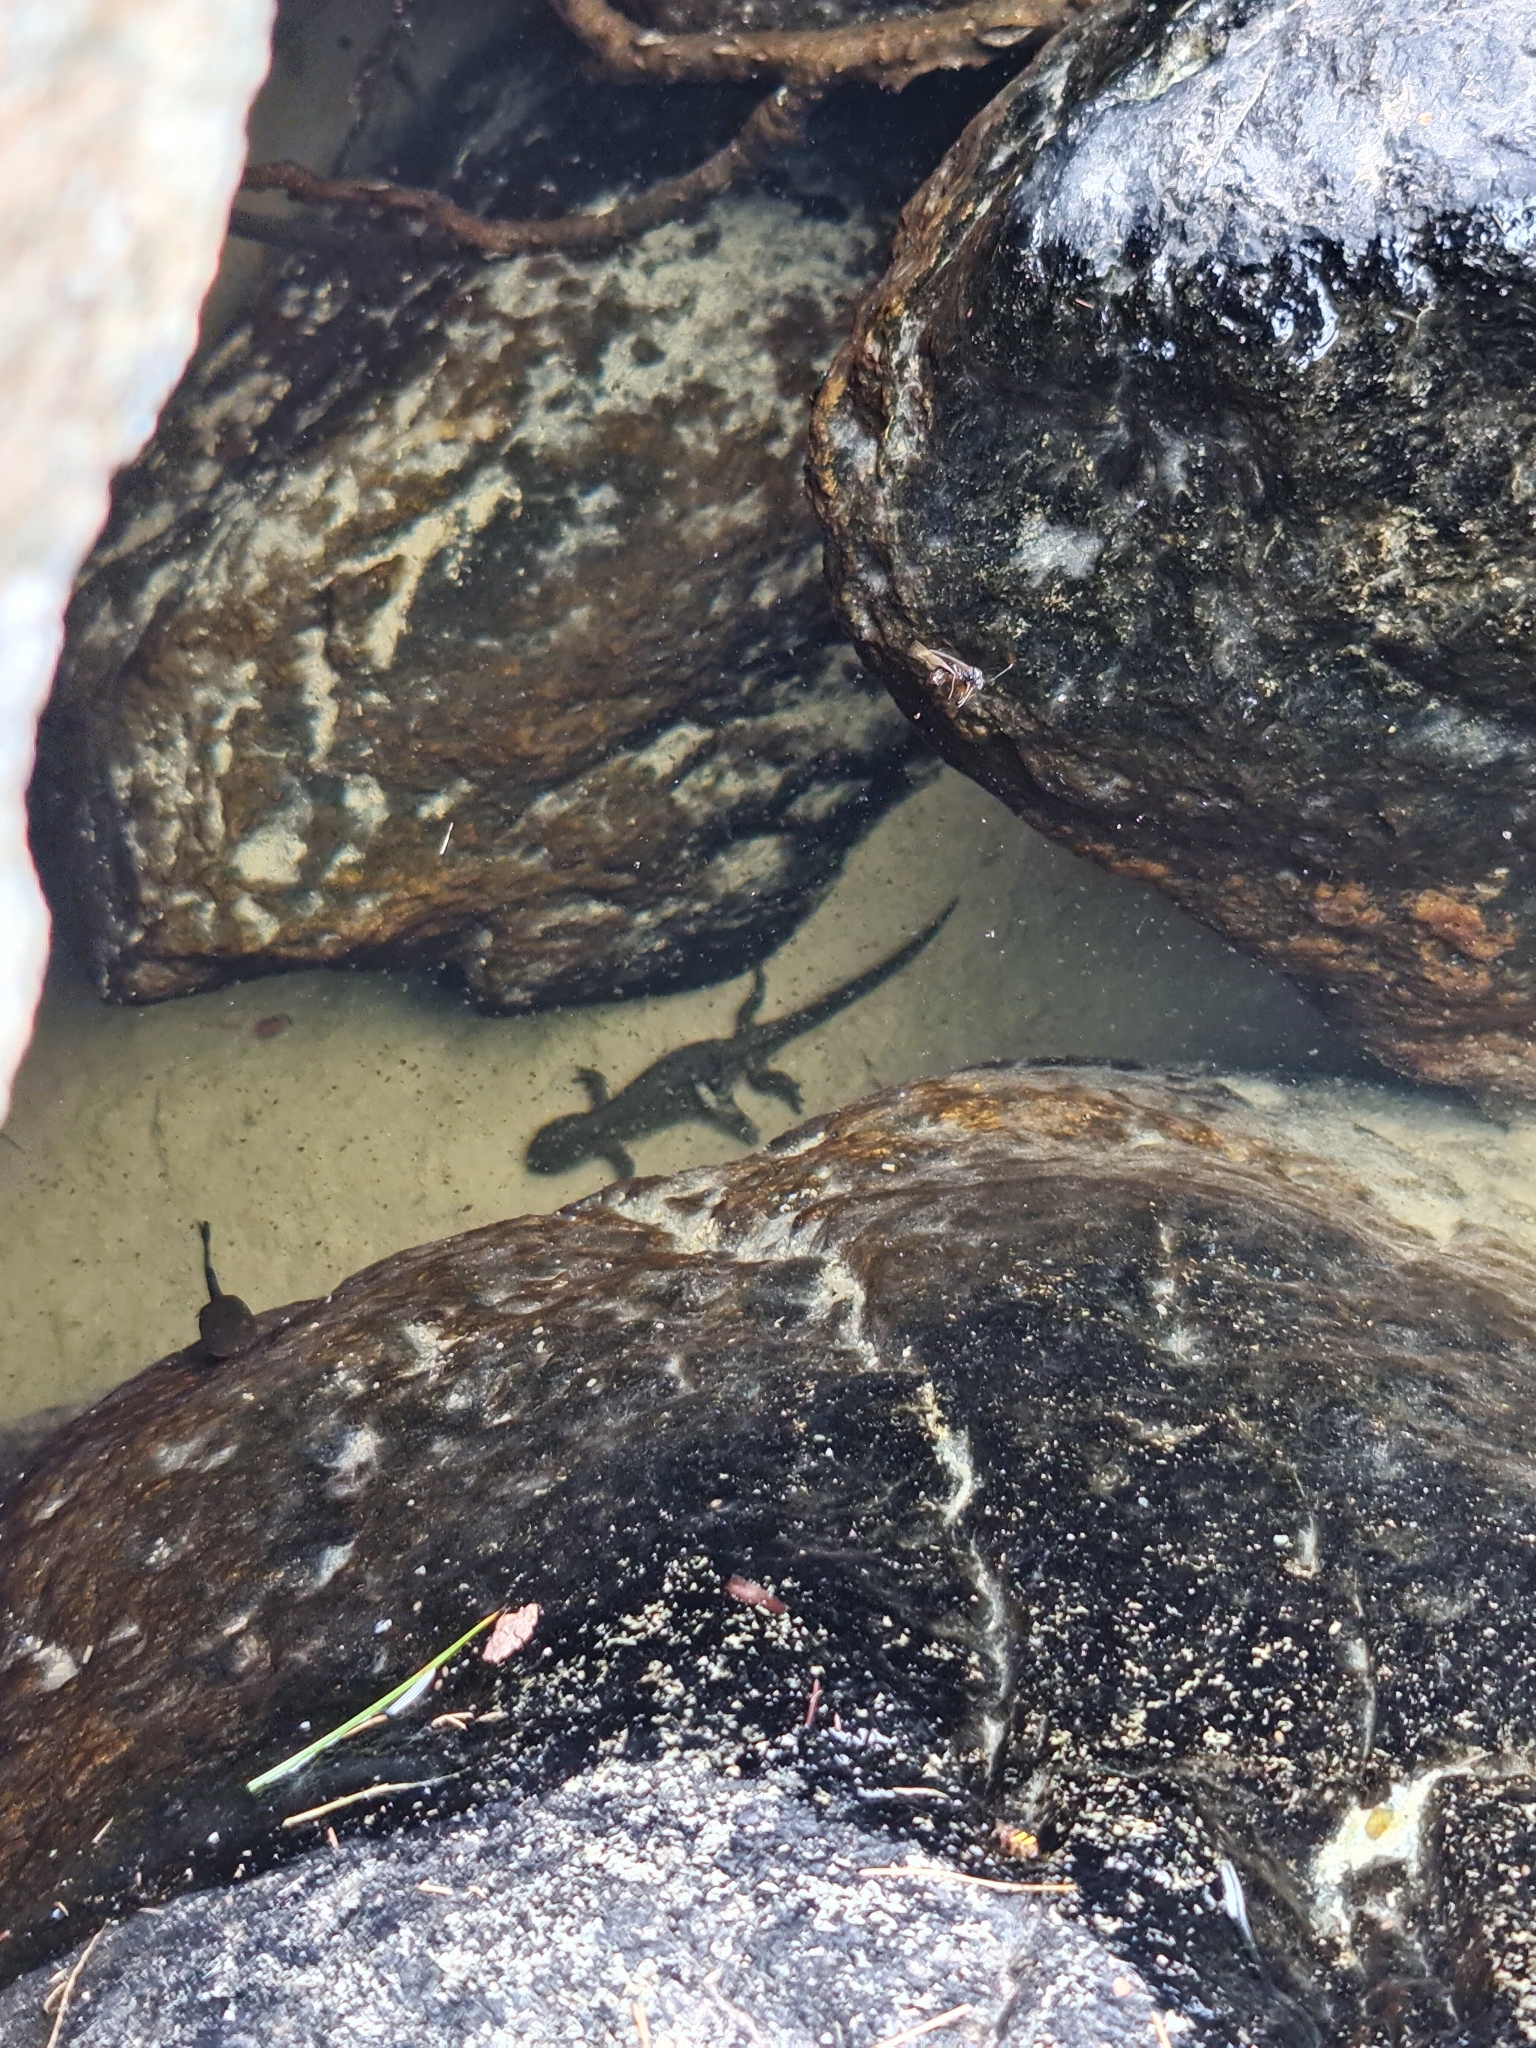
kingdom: Animalia
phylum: Chordata
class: Amphibia
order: Caudata
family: Salamandridae
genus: Ichthyosaura
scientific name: Ichthyosaura alpestris
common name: Alpine newt
